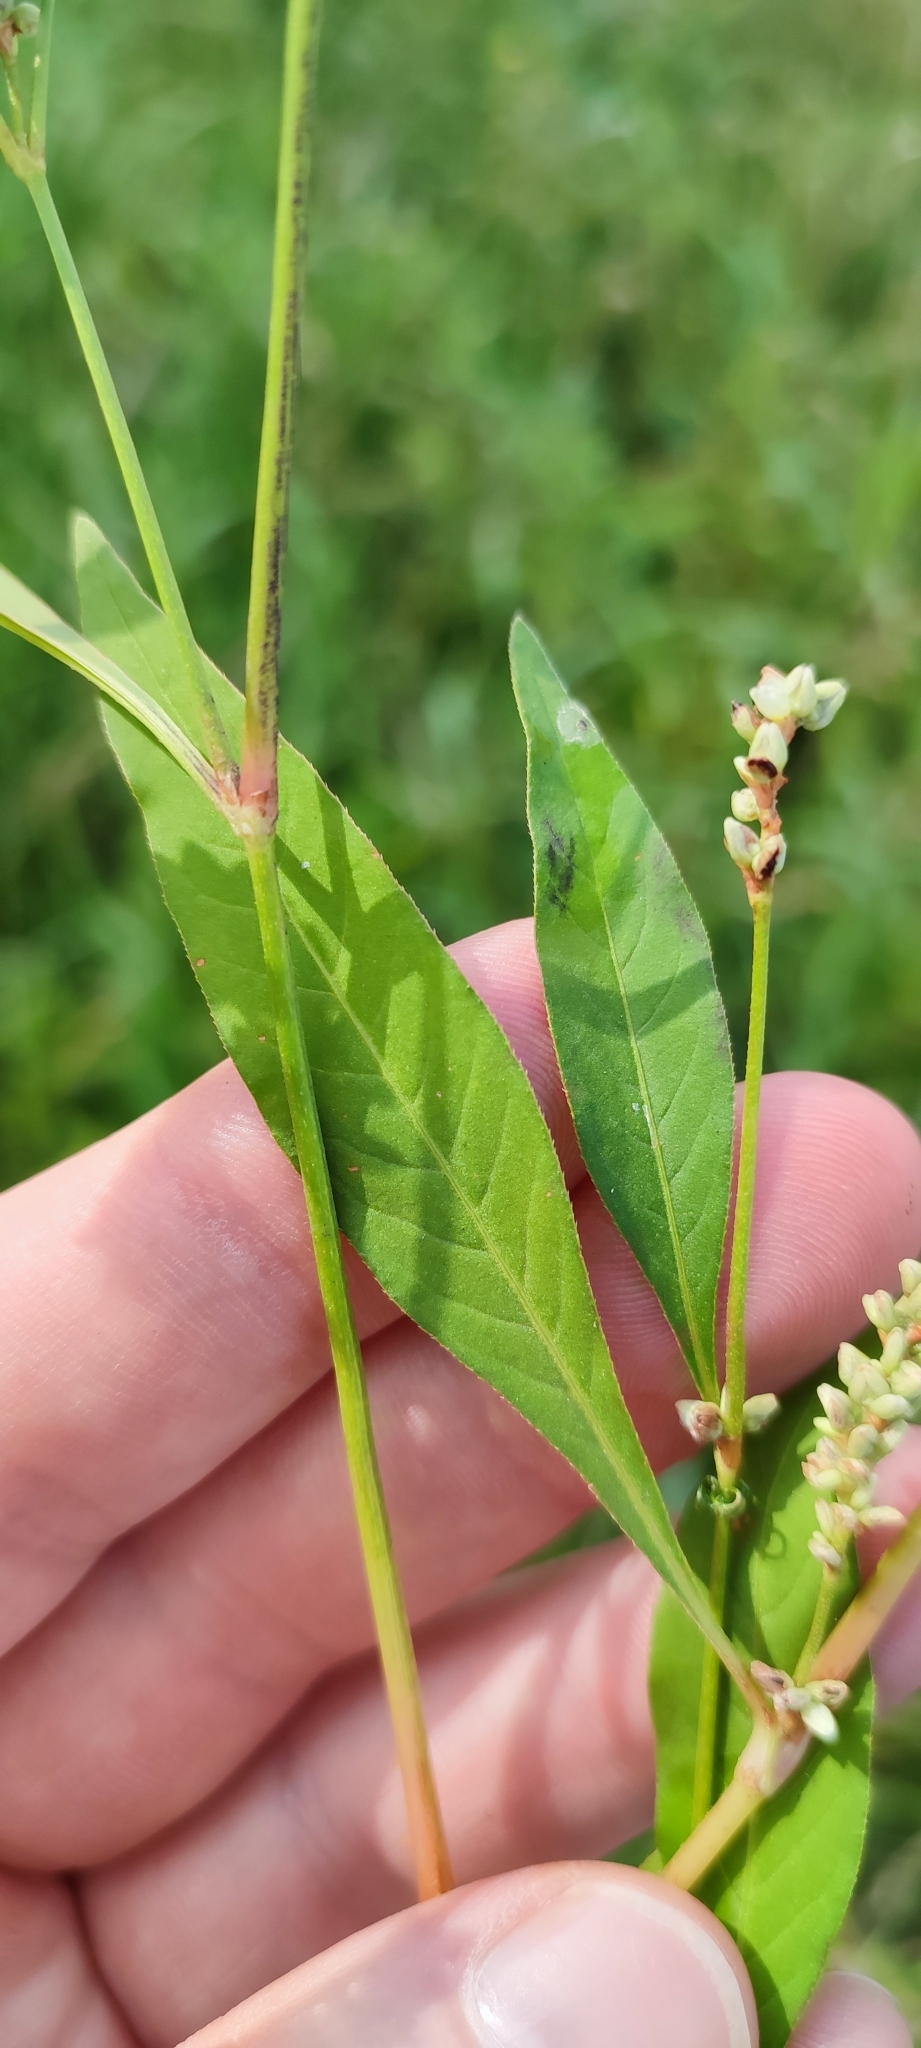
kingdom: Plantae
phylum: Tracheophyta
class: Magnoliopsida
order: Caryophyllales
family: Polygonaceae
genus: Persicaria
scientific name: Persicaria lapathifolia
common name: Curlytop knotweed
